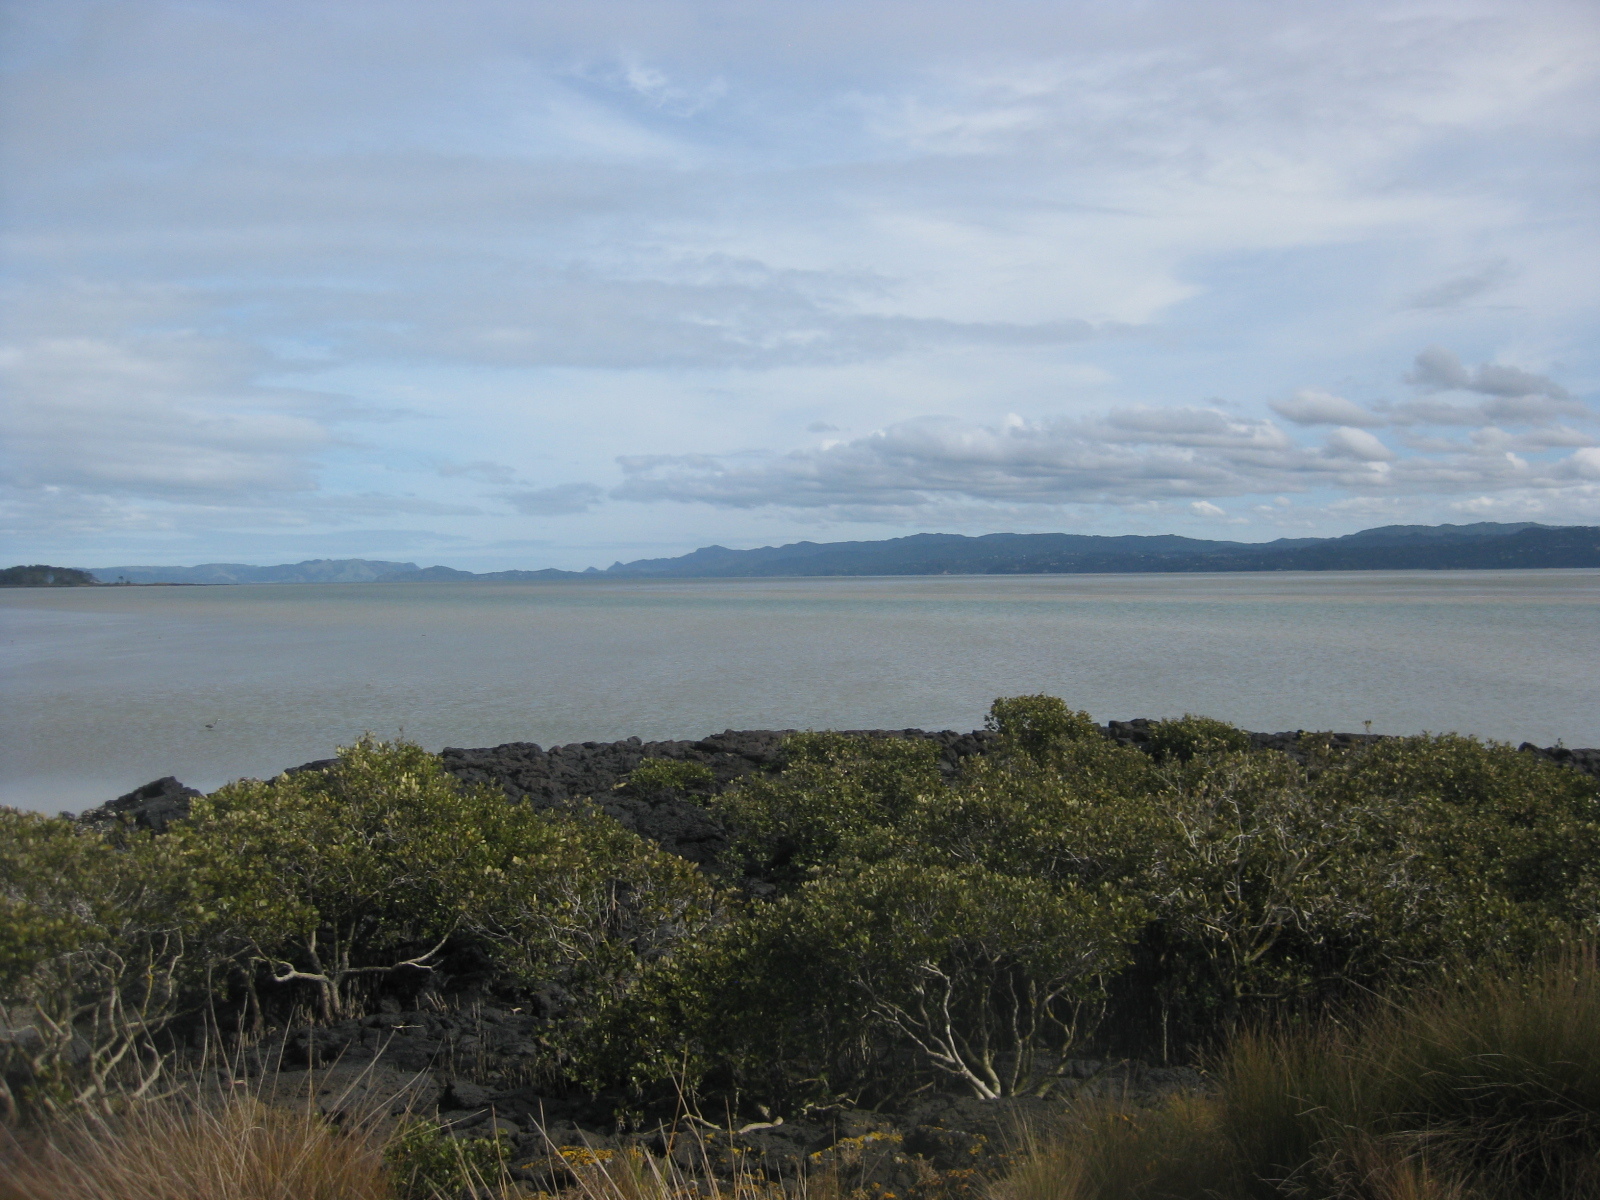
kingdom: Plantae
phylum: Tracheophyta
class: Magnoliopsida
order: Lamiales
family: Acanthaceae
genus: Avicennia
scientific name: Avicennia marina
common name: Gray mangrove
